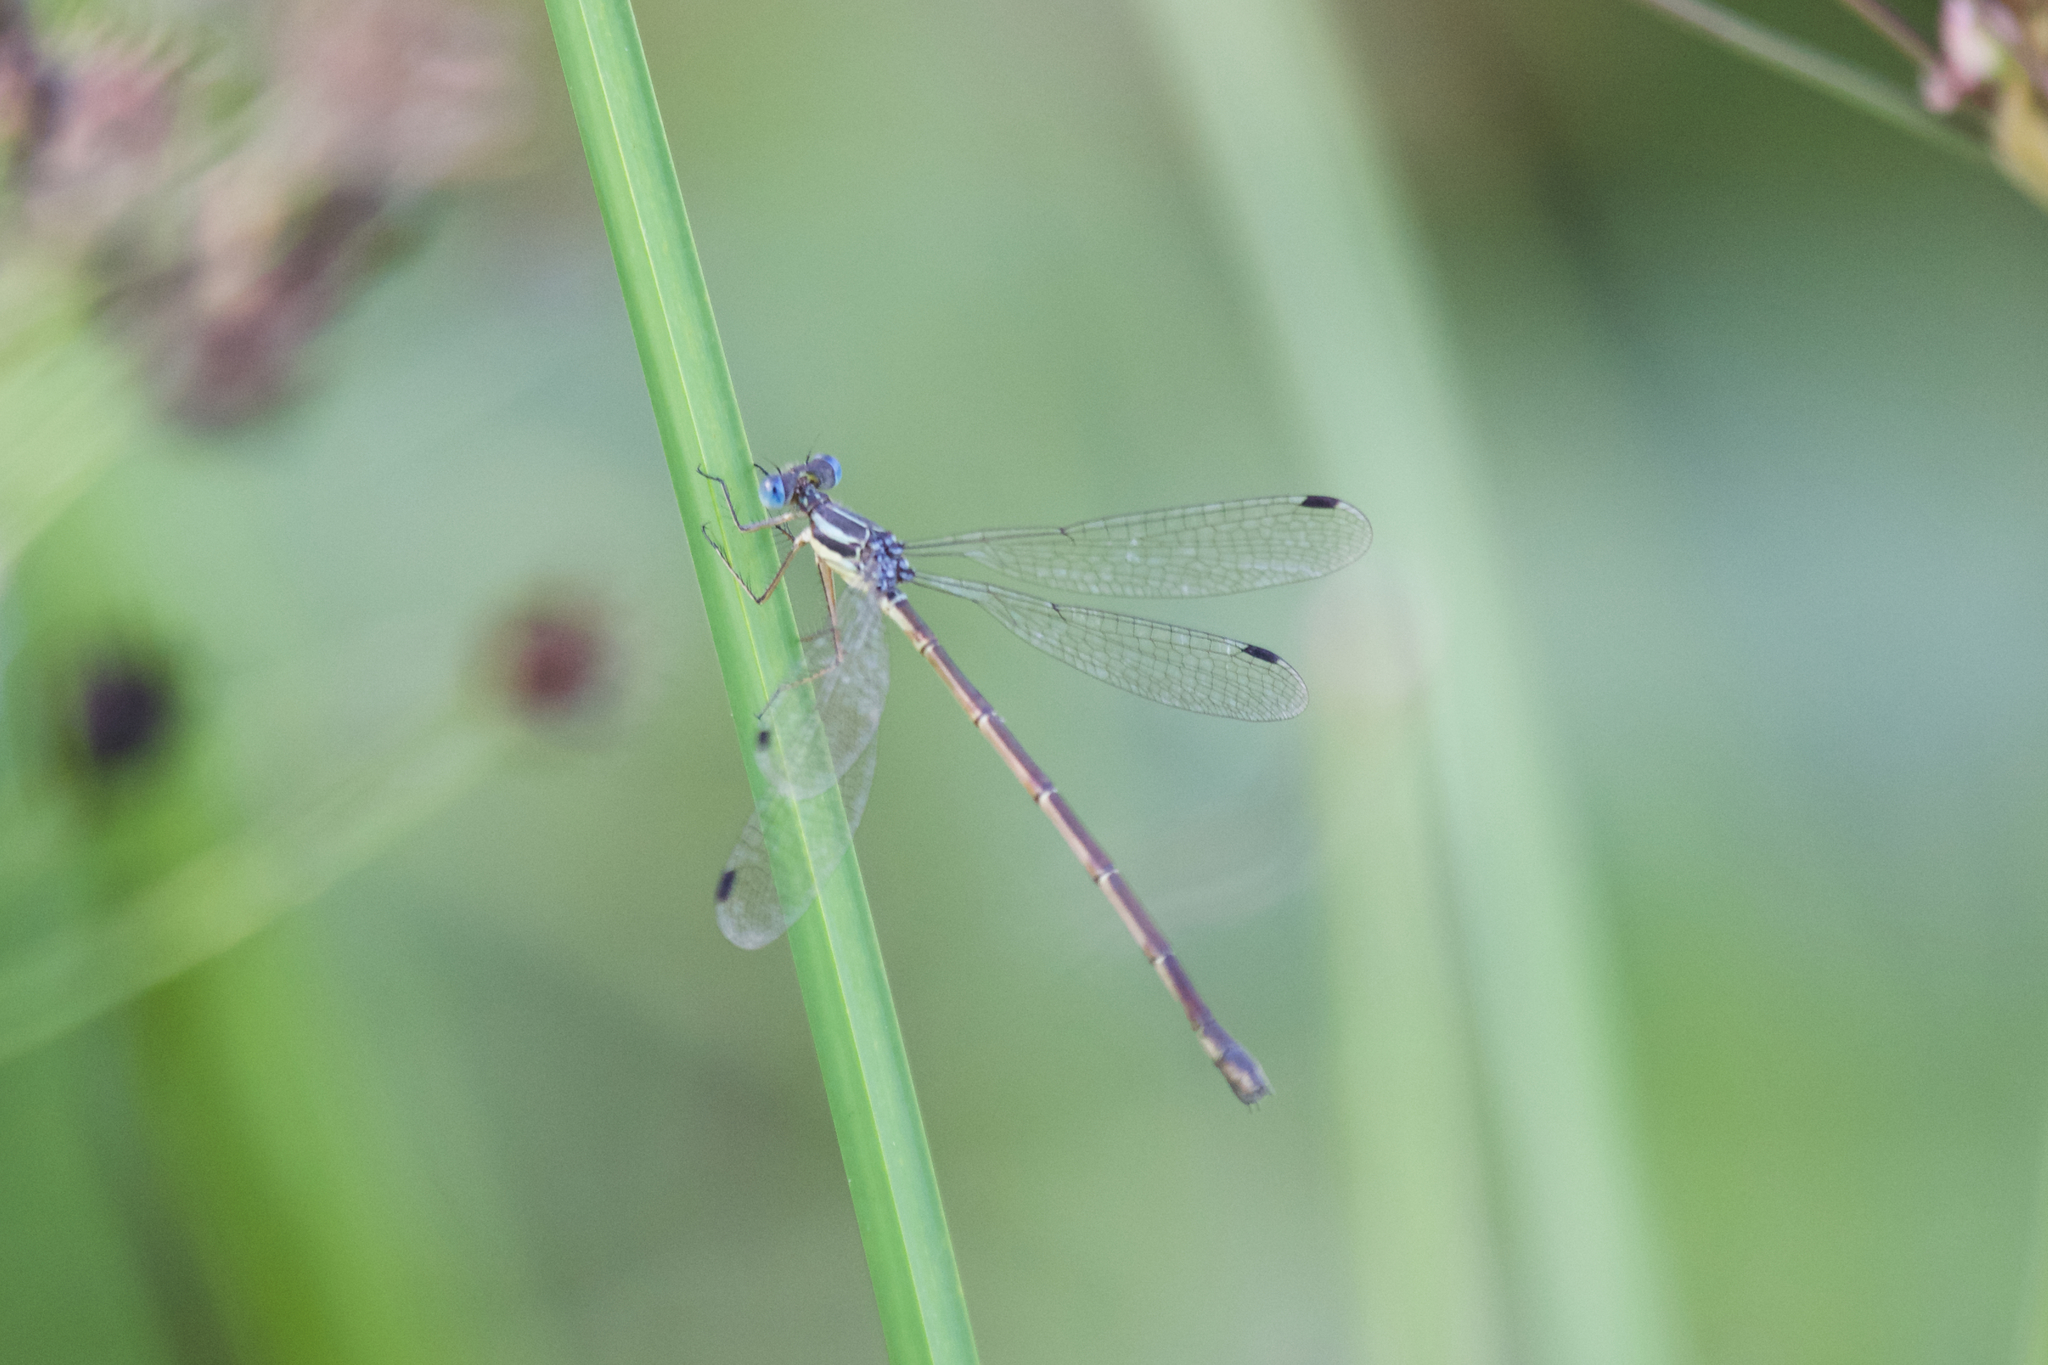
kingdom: Animalia
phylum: Arthropoda
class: Insecta
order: Odonata
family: Lestidae
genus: Lestes
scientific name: Lestes rectangularis
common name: Slender spreadwing
